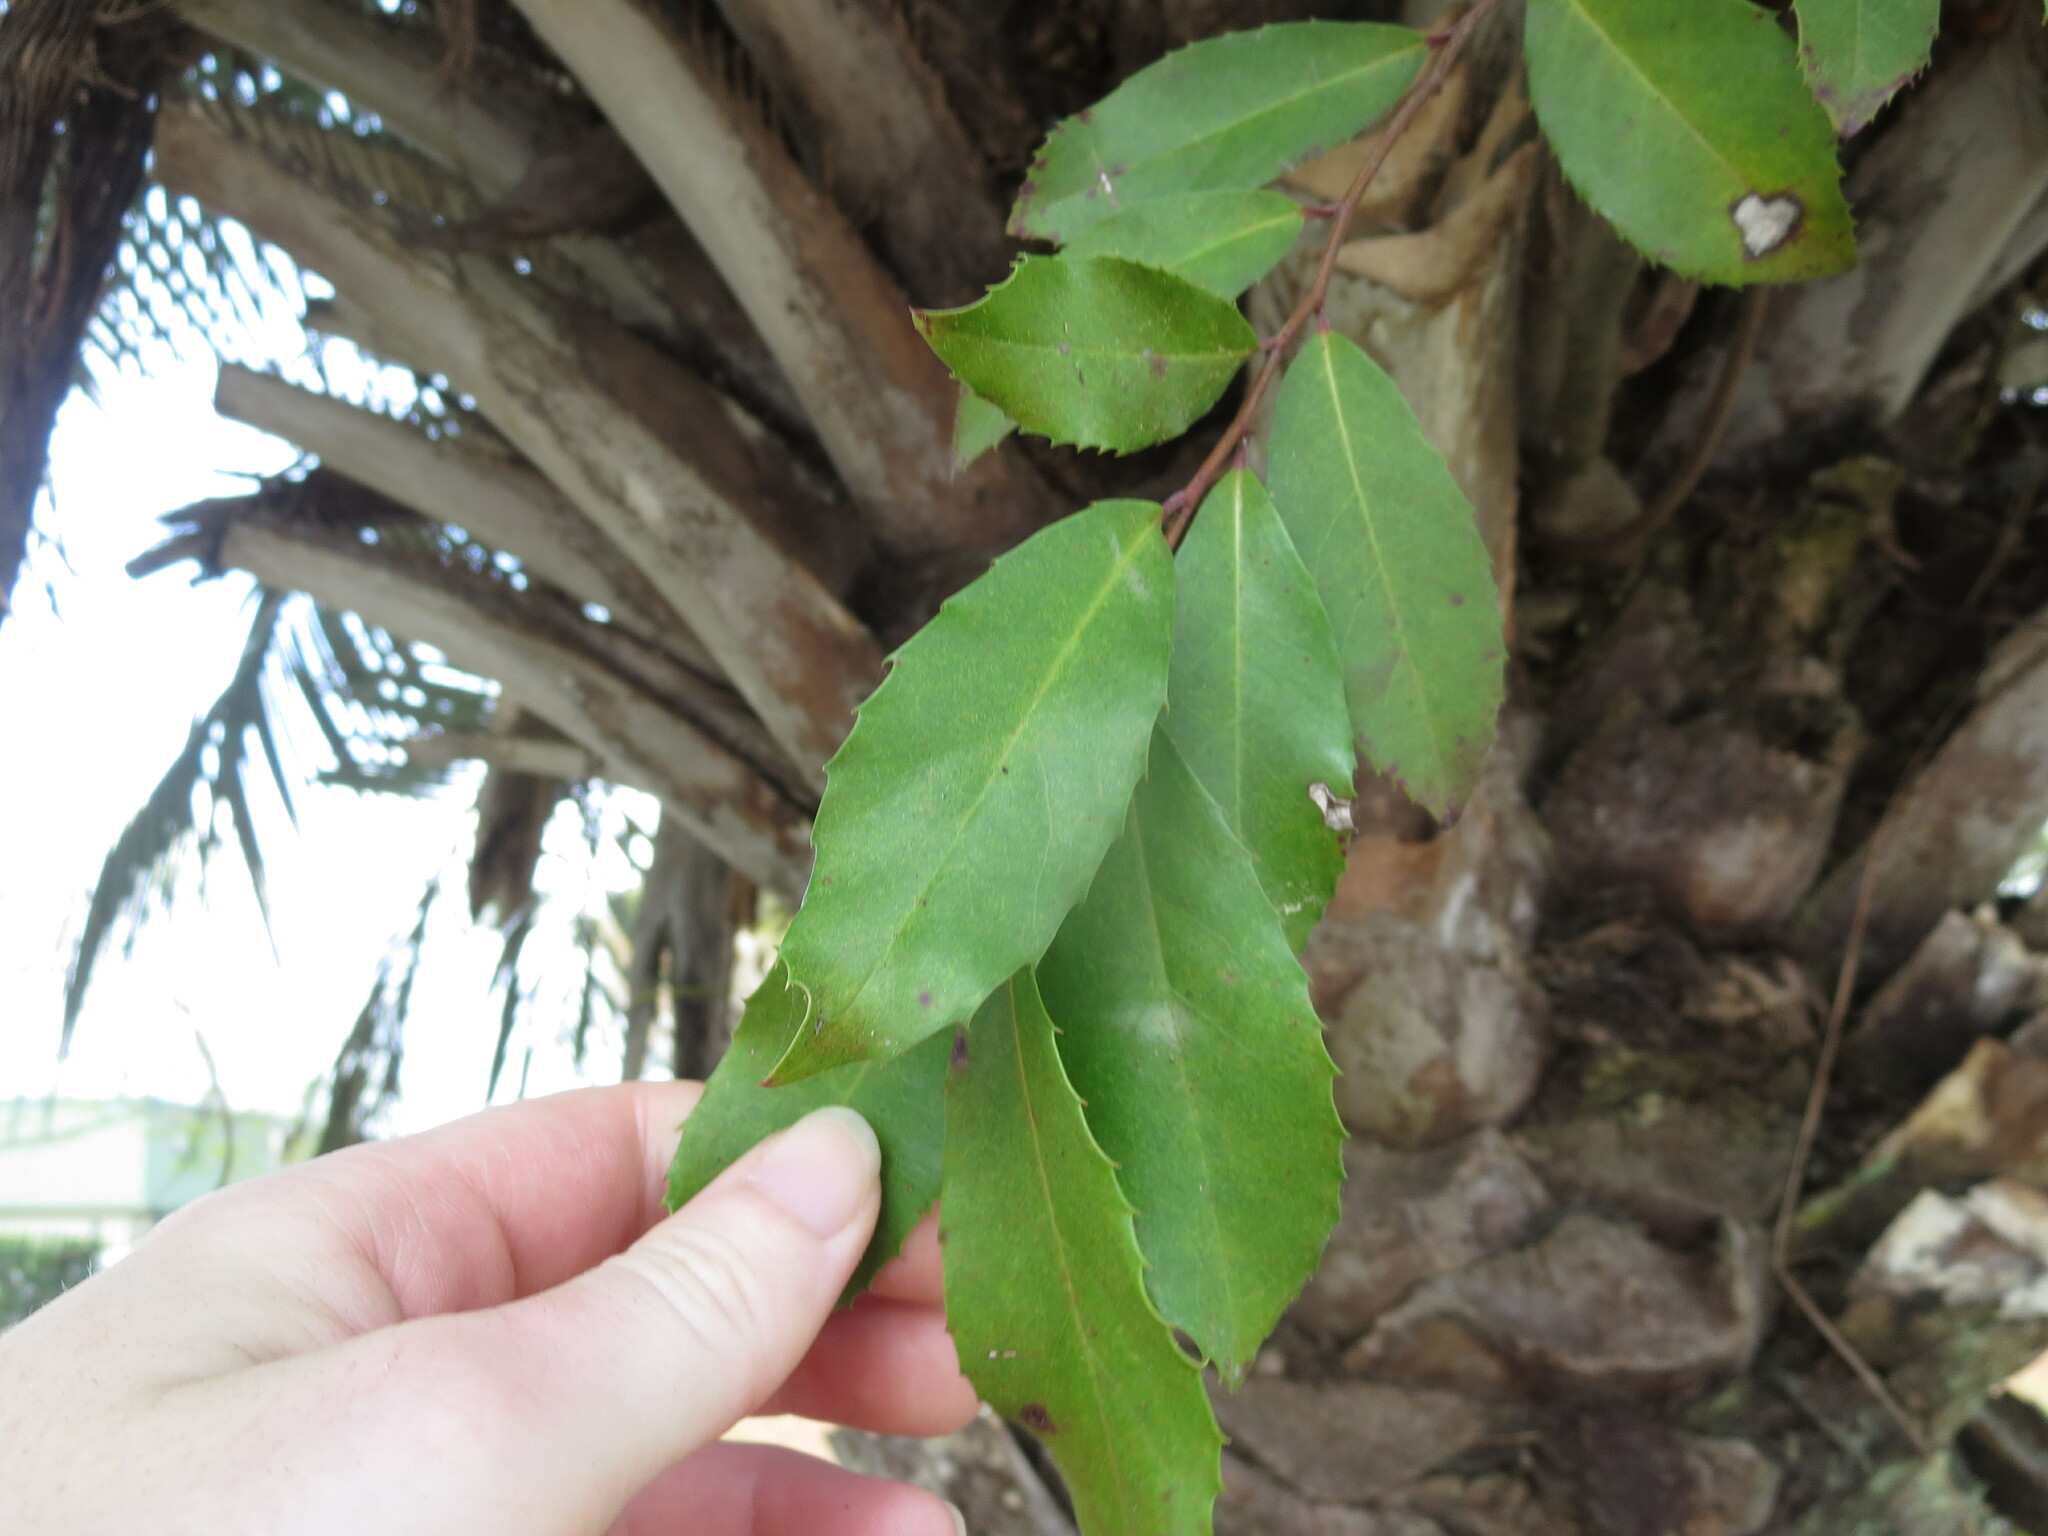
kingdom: Plantae
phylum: Tracheophyta
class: Magnoliopsida
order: Rosales
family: Rosaceae
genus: Prunus
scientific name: Prunus caroliniana
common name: Carolina laurel cherry
